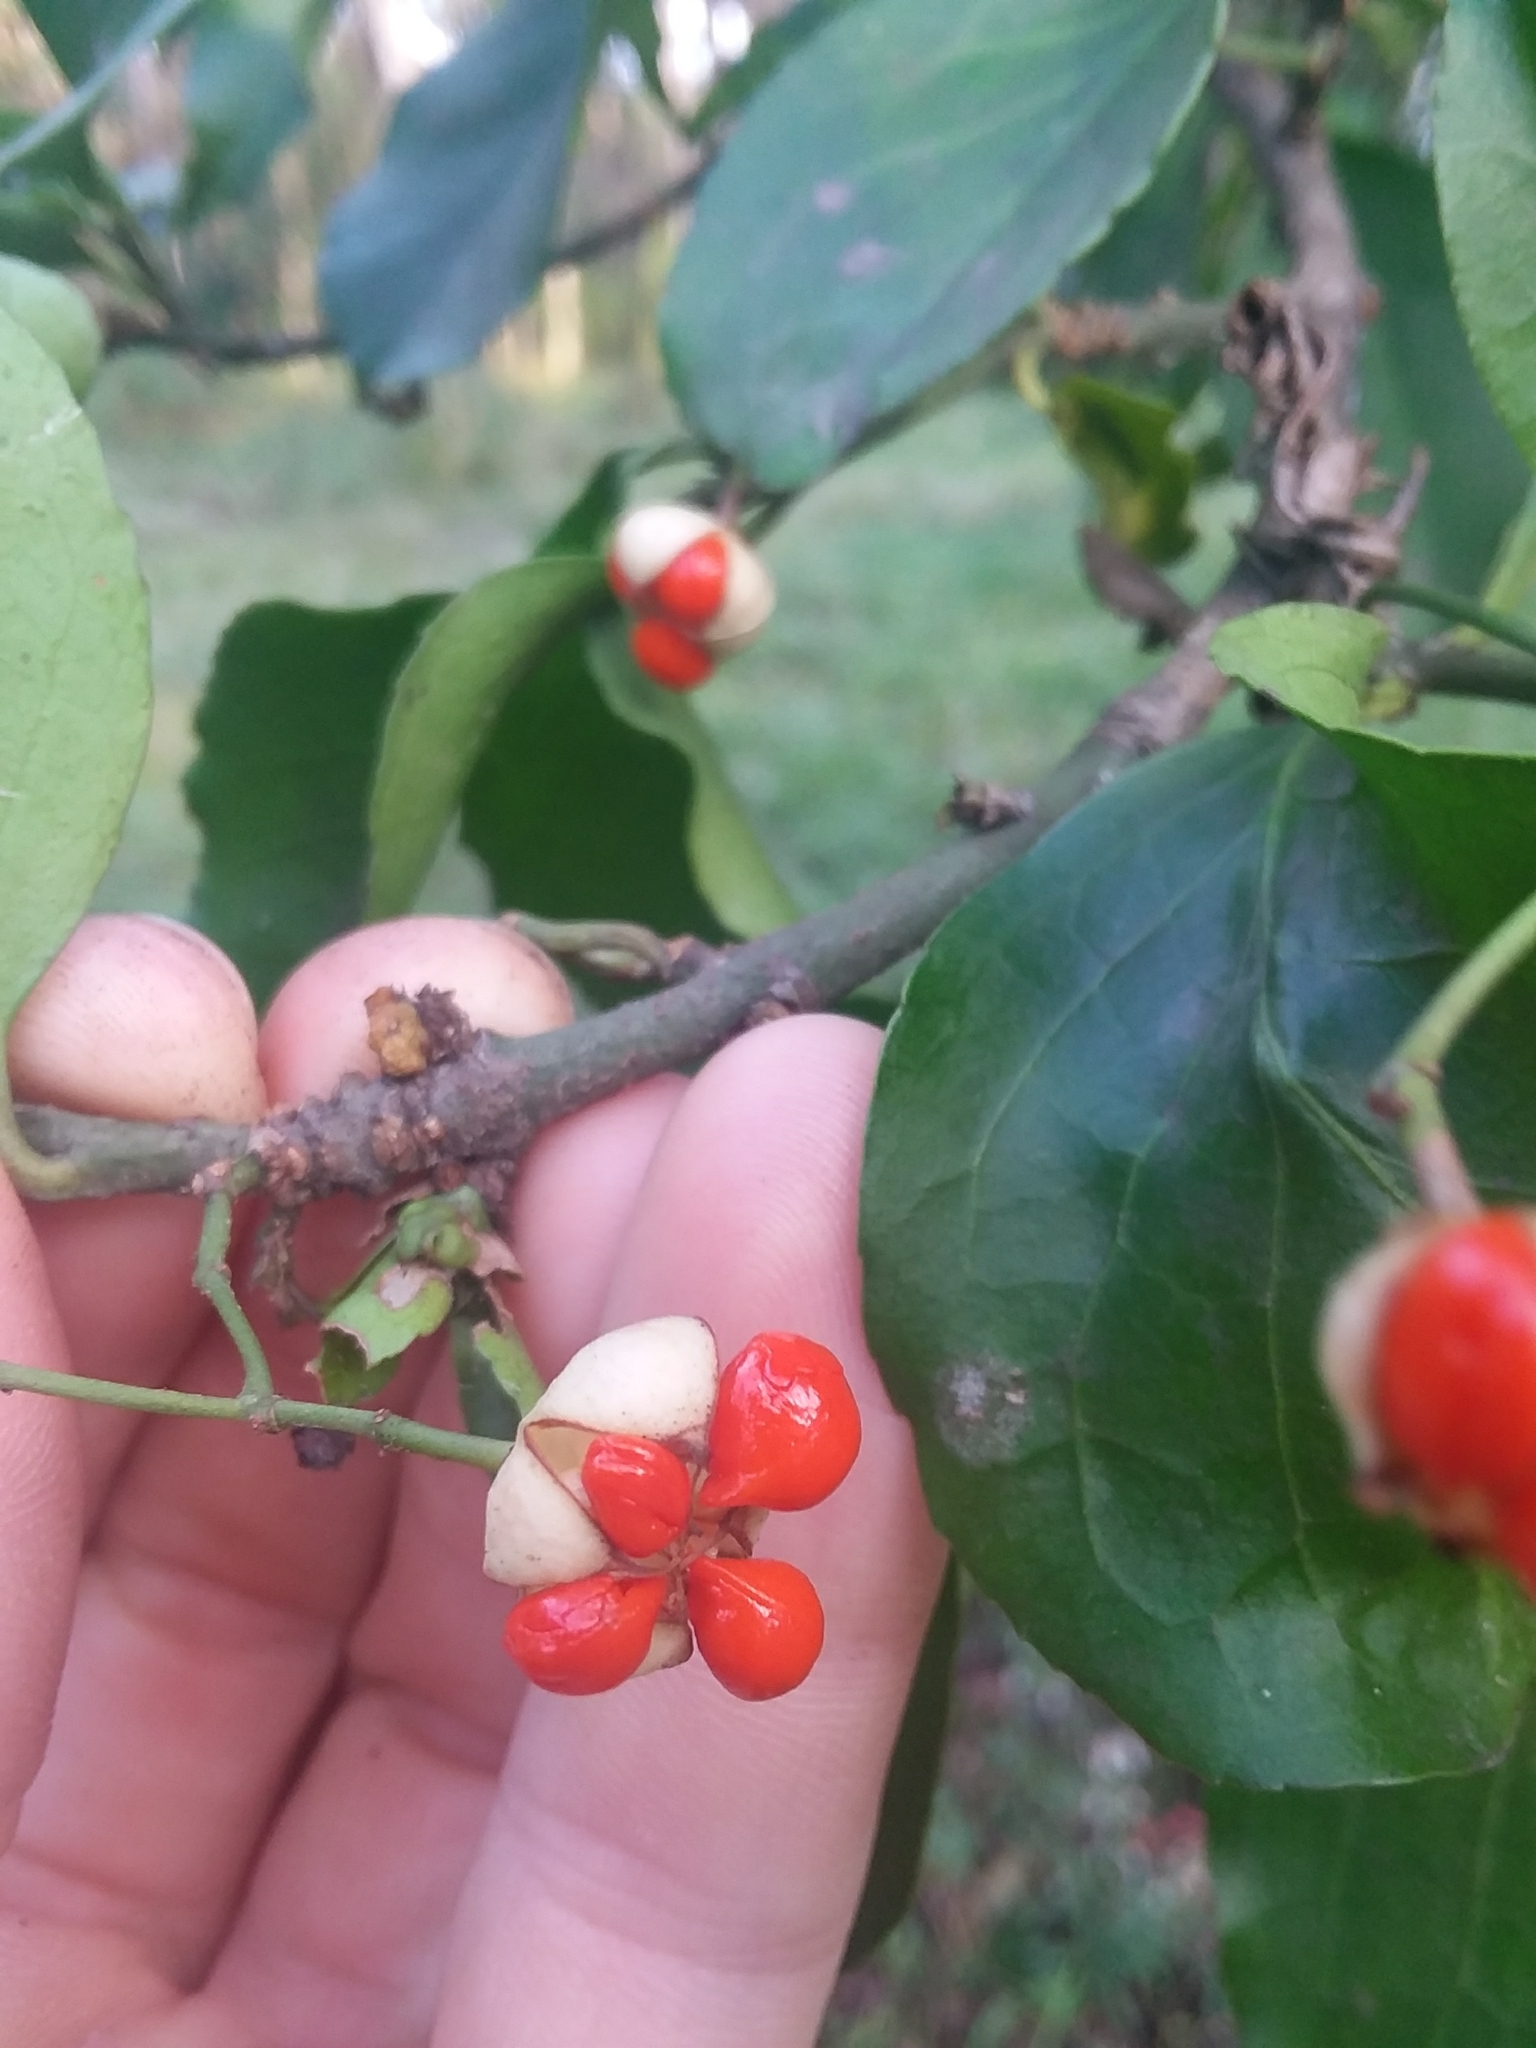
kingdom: Plantae
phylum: Tracheophyta
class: Magnoliopsida
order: Celastrales
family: Celastraceae
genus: Euonymus
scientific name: Euonymus fortunei
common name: Climbing euonymus
